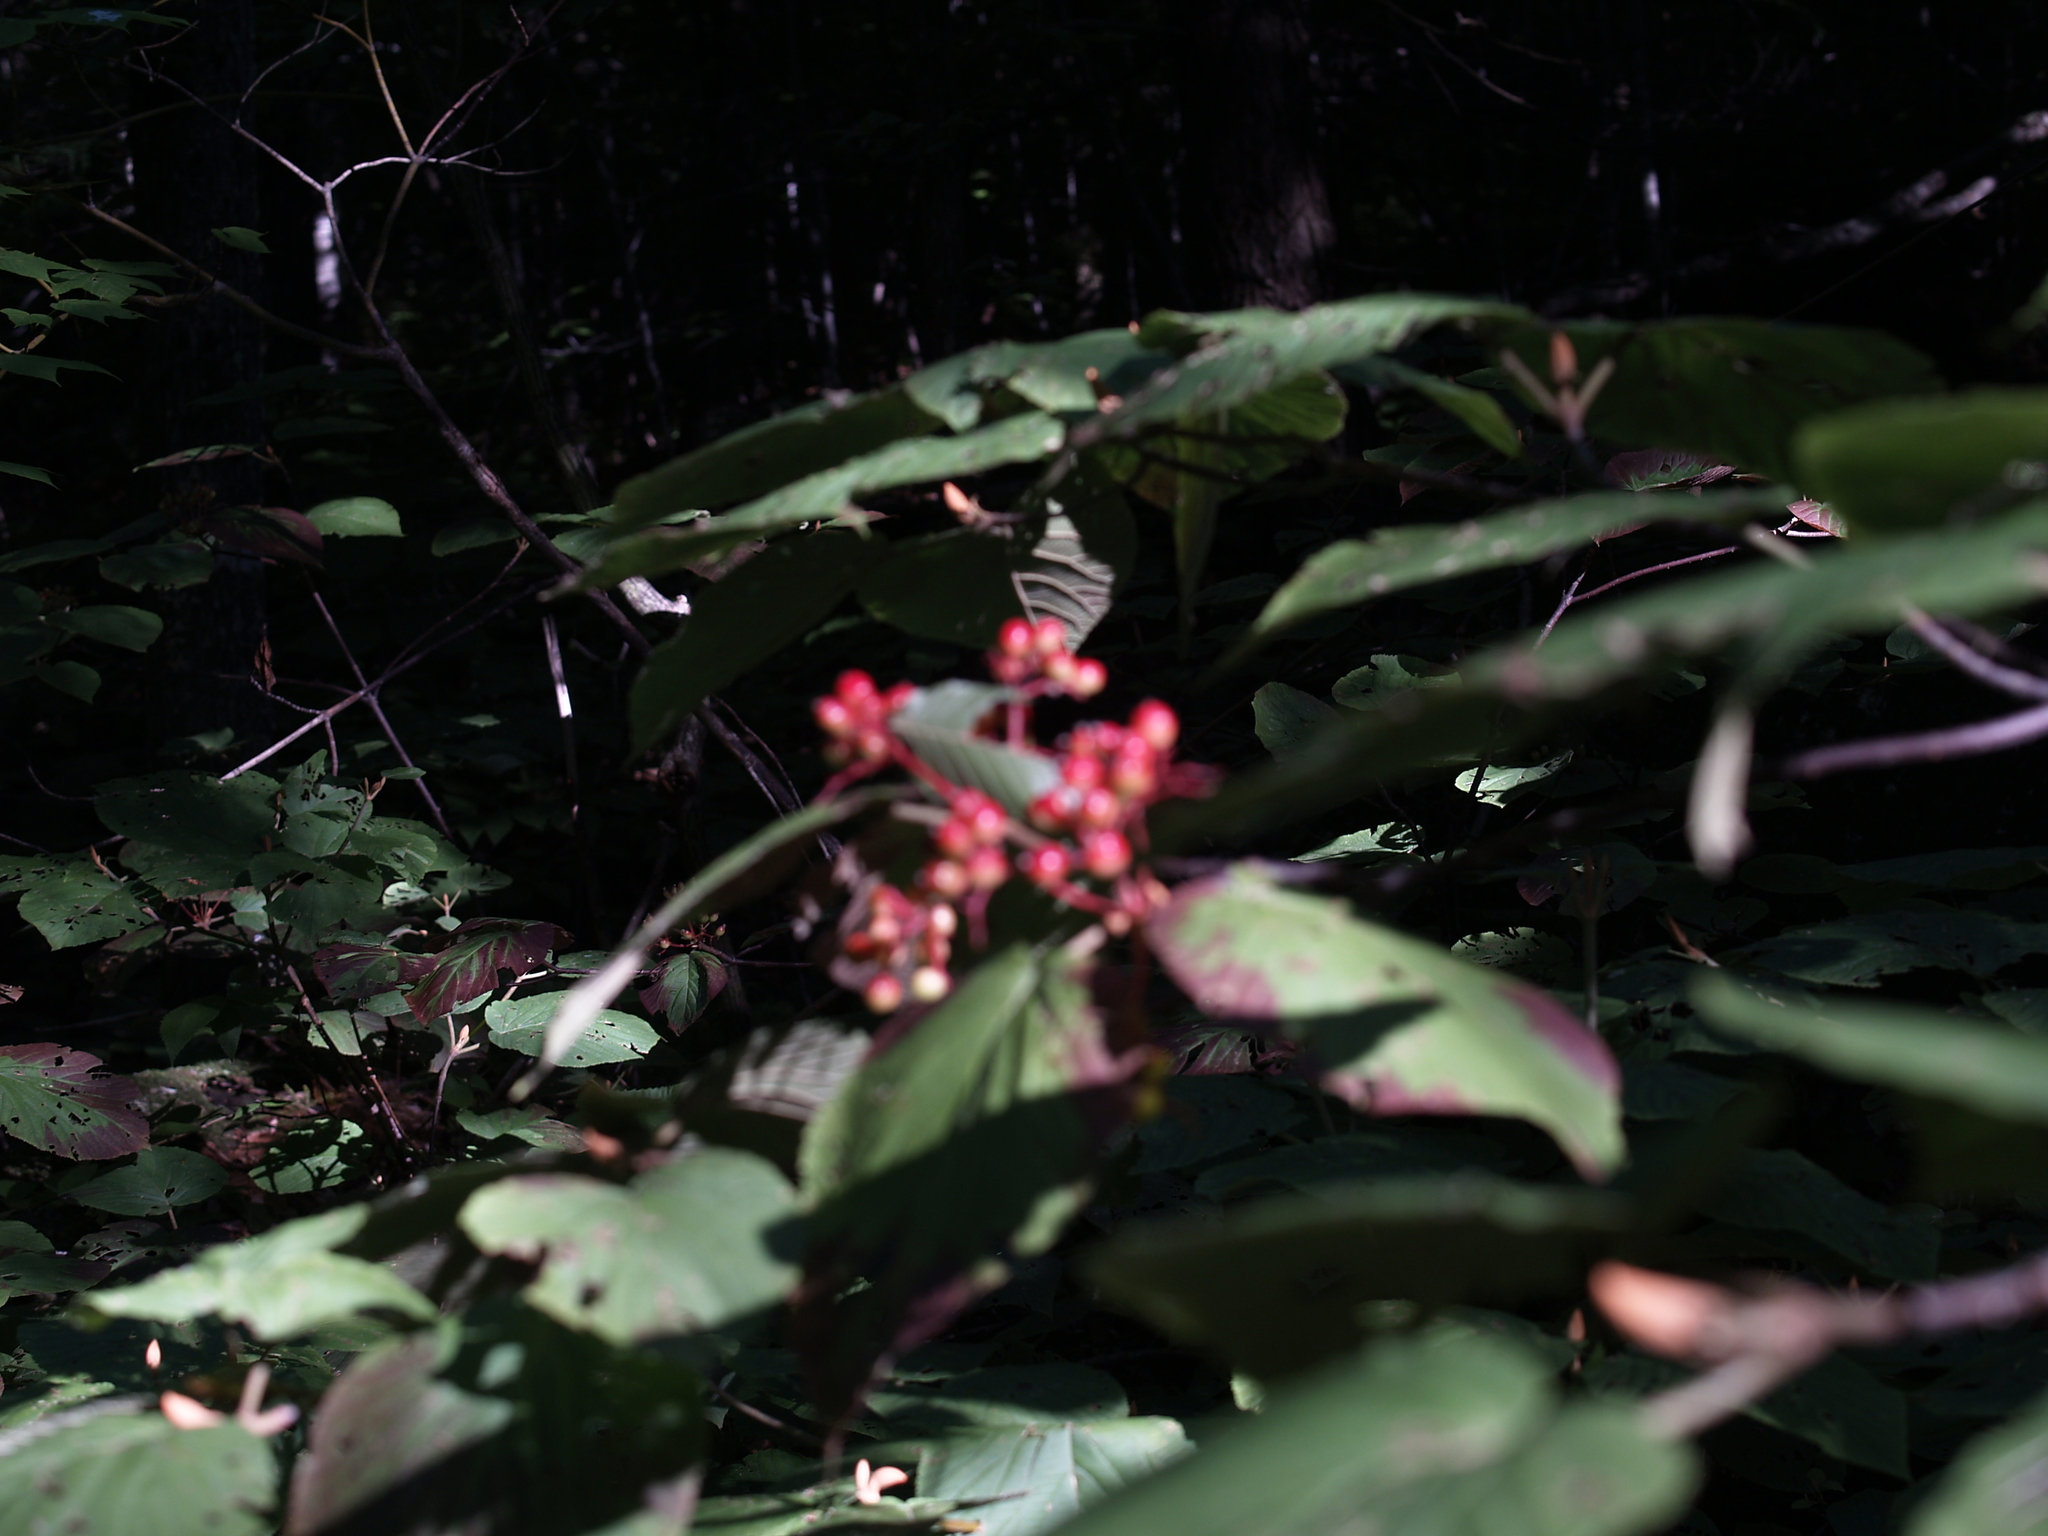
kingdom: Plantae
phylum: Tracheophyta
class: Magnoliopsida
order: Dipsacales
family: Viburnaceae
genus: Viburnum
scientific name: Viburnum lantanoides
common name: Hobblebush
